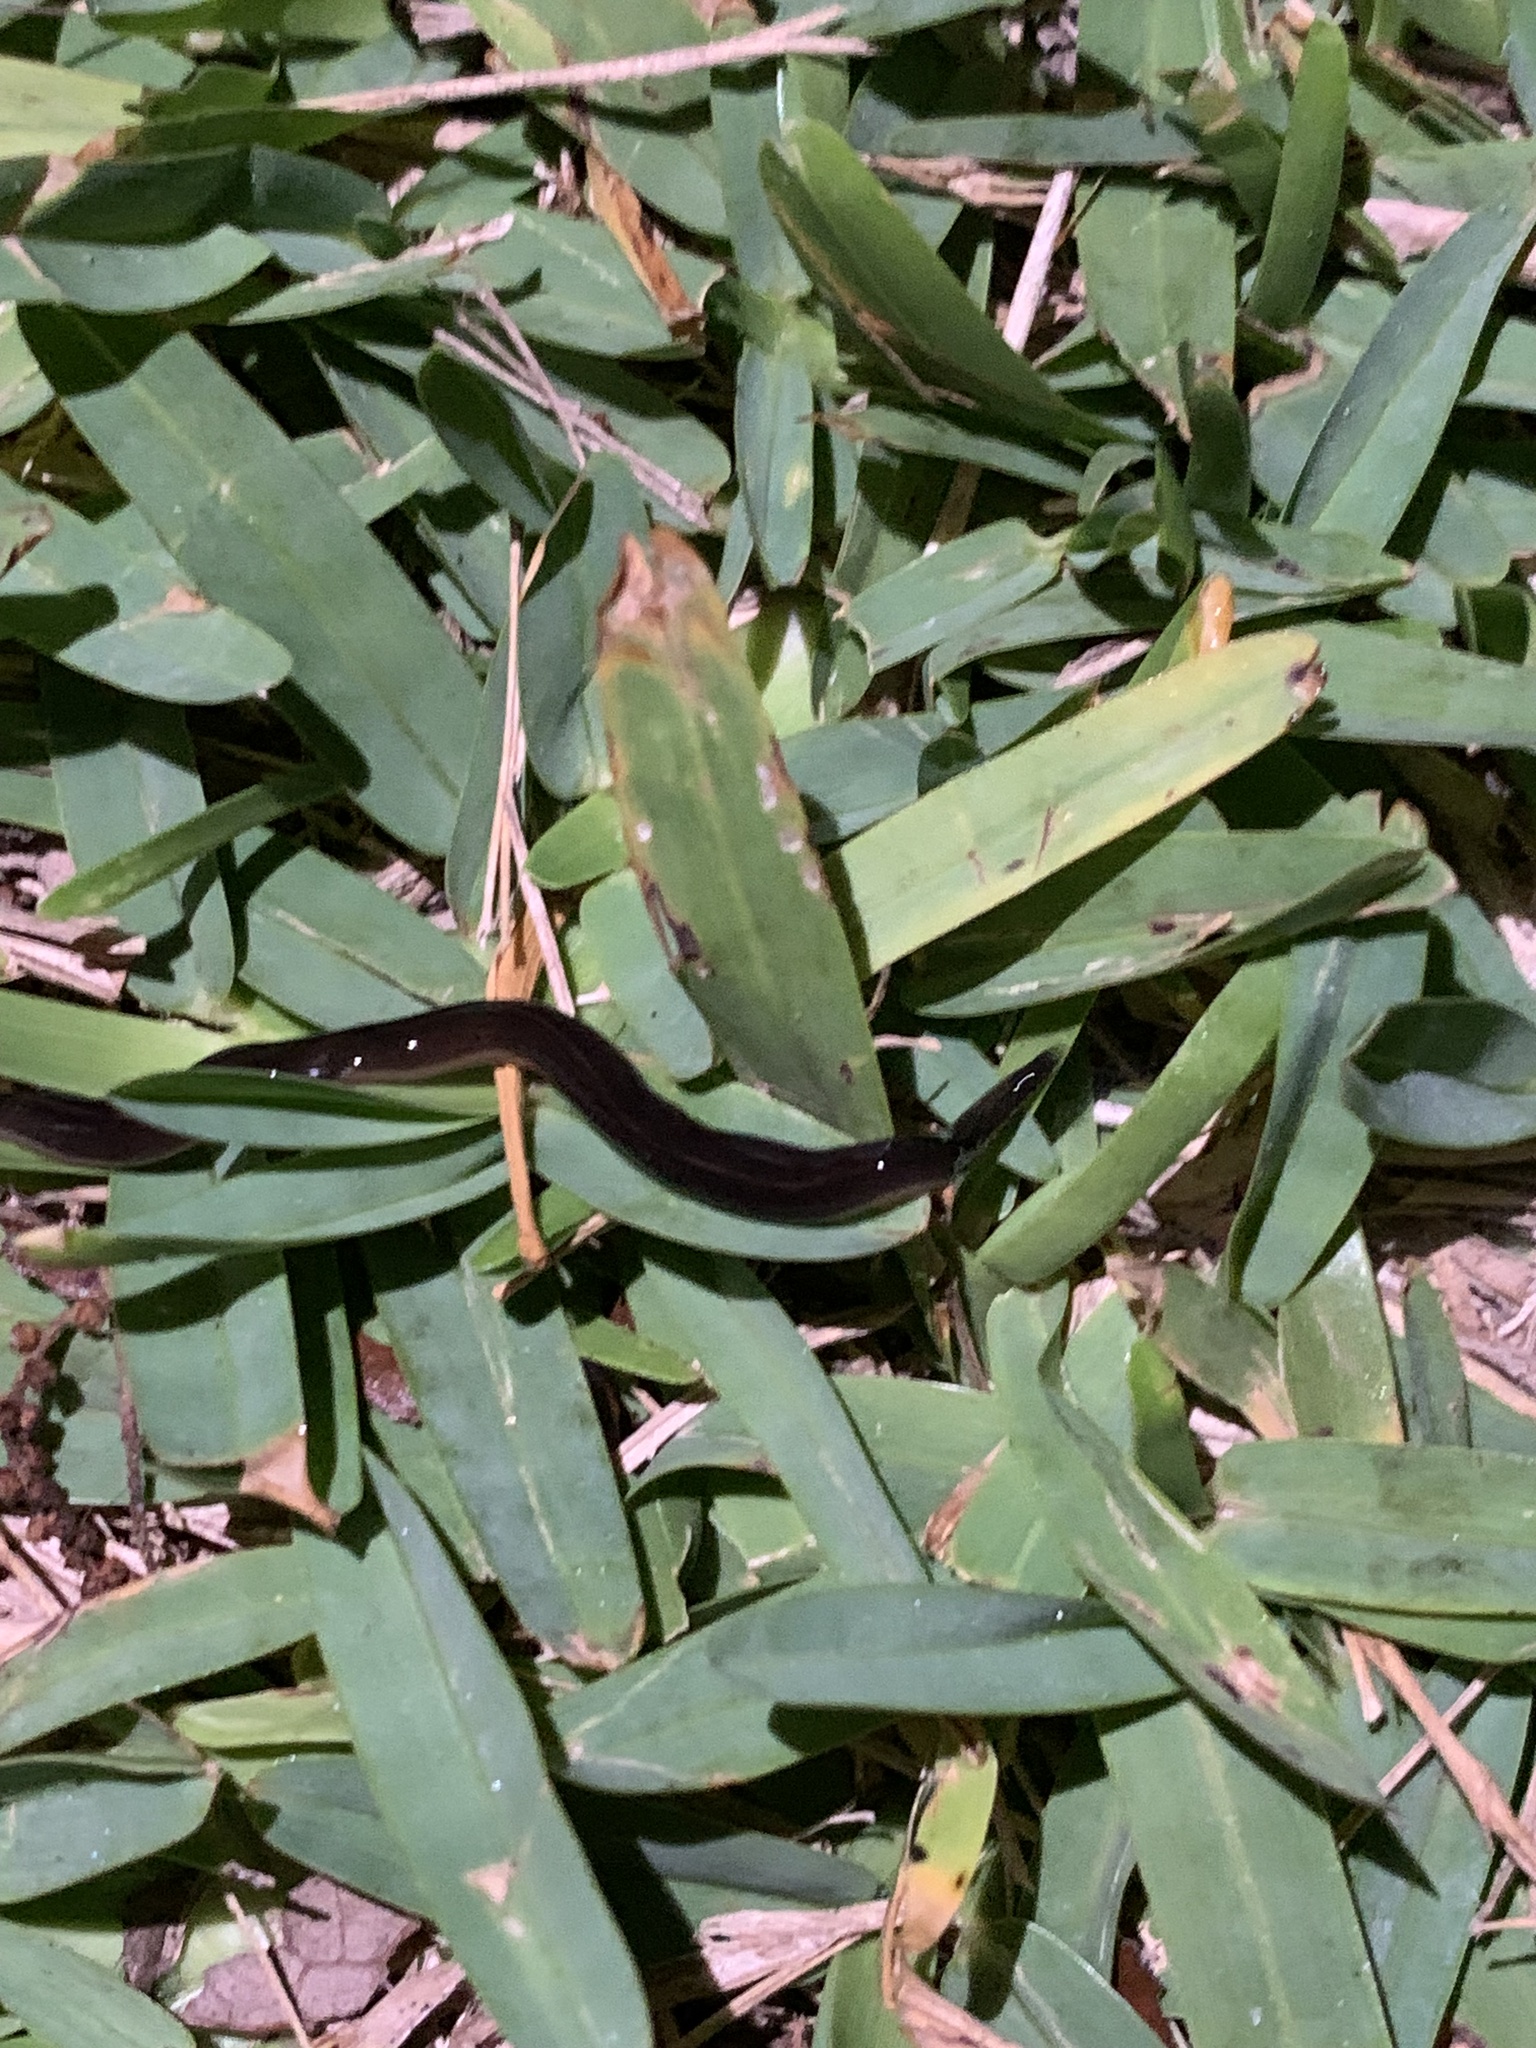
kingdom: Animalia
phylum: Platyhelminthes
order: Tricladida
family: Geoplanidae
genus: Platydemus
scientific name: Platydemus manokwari
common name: New guinea flatworm
